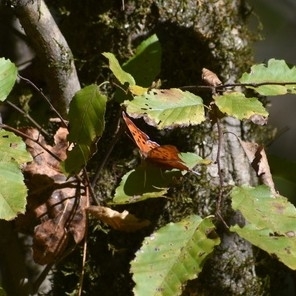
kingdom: Animalia
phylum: Arthropoda
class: Insecta
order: Lepidoptera
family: Nymphalidae
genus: Polygonia
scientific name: Polygonia interrogationis
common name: Question mark
